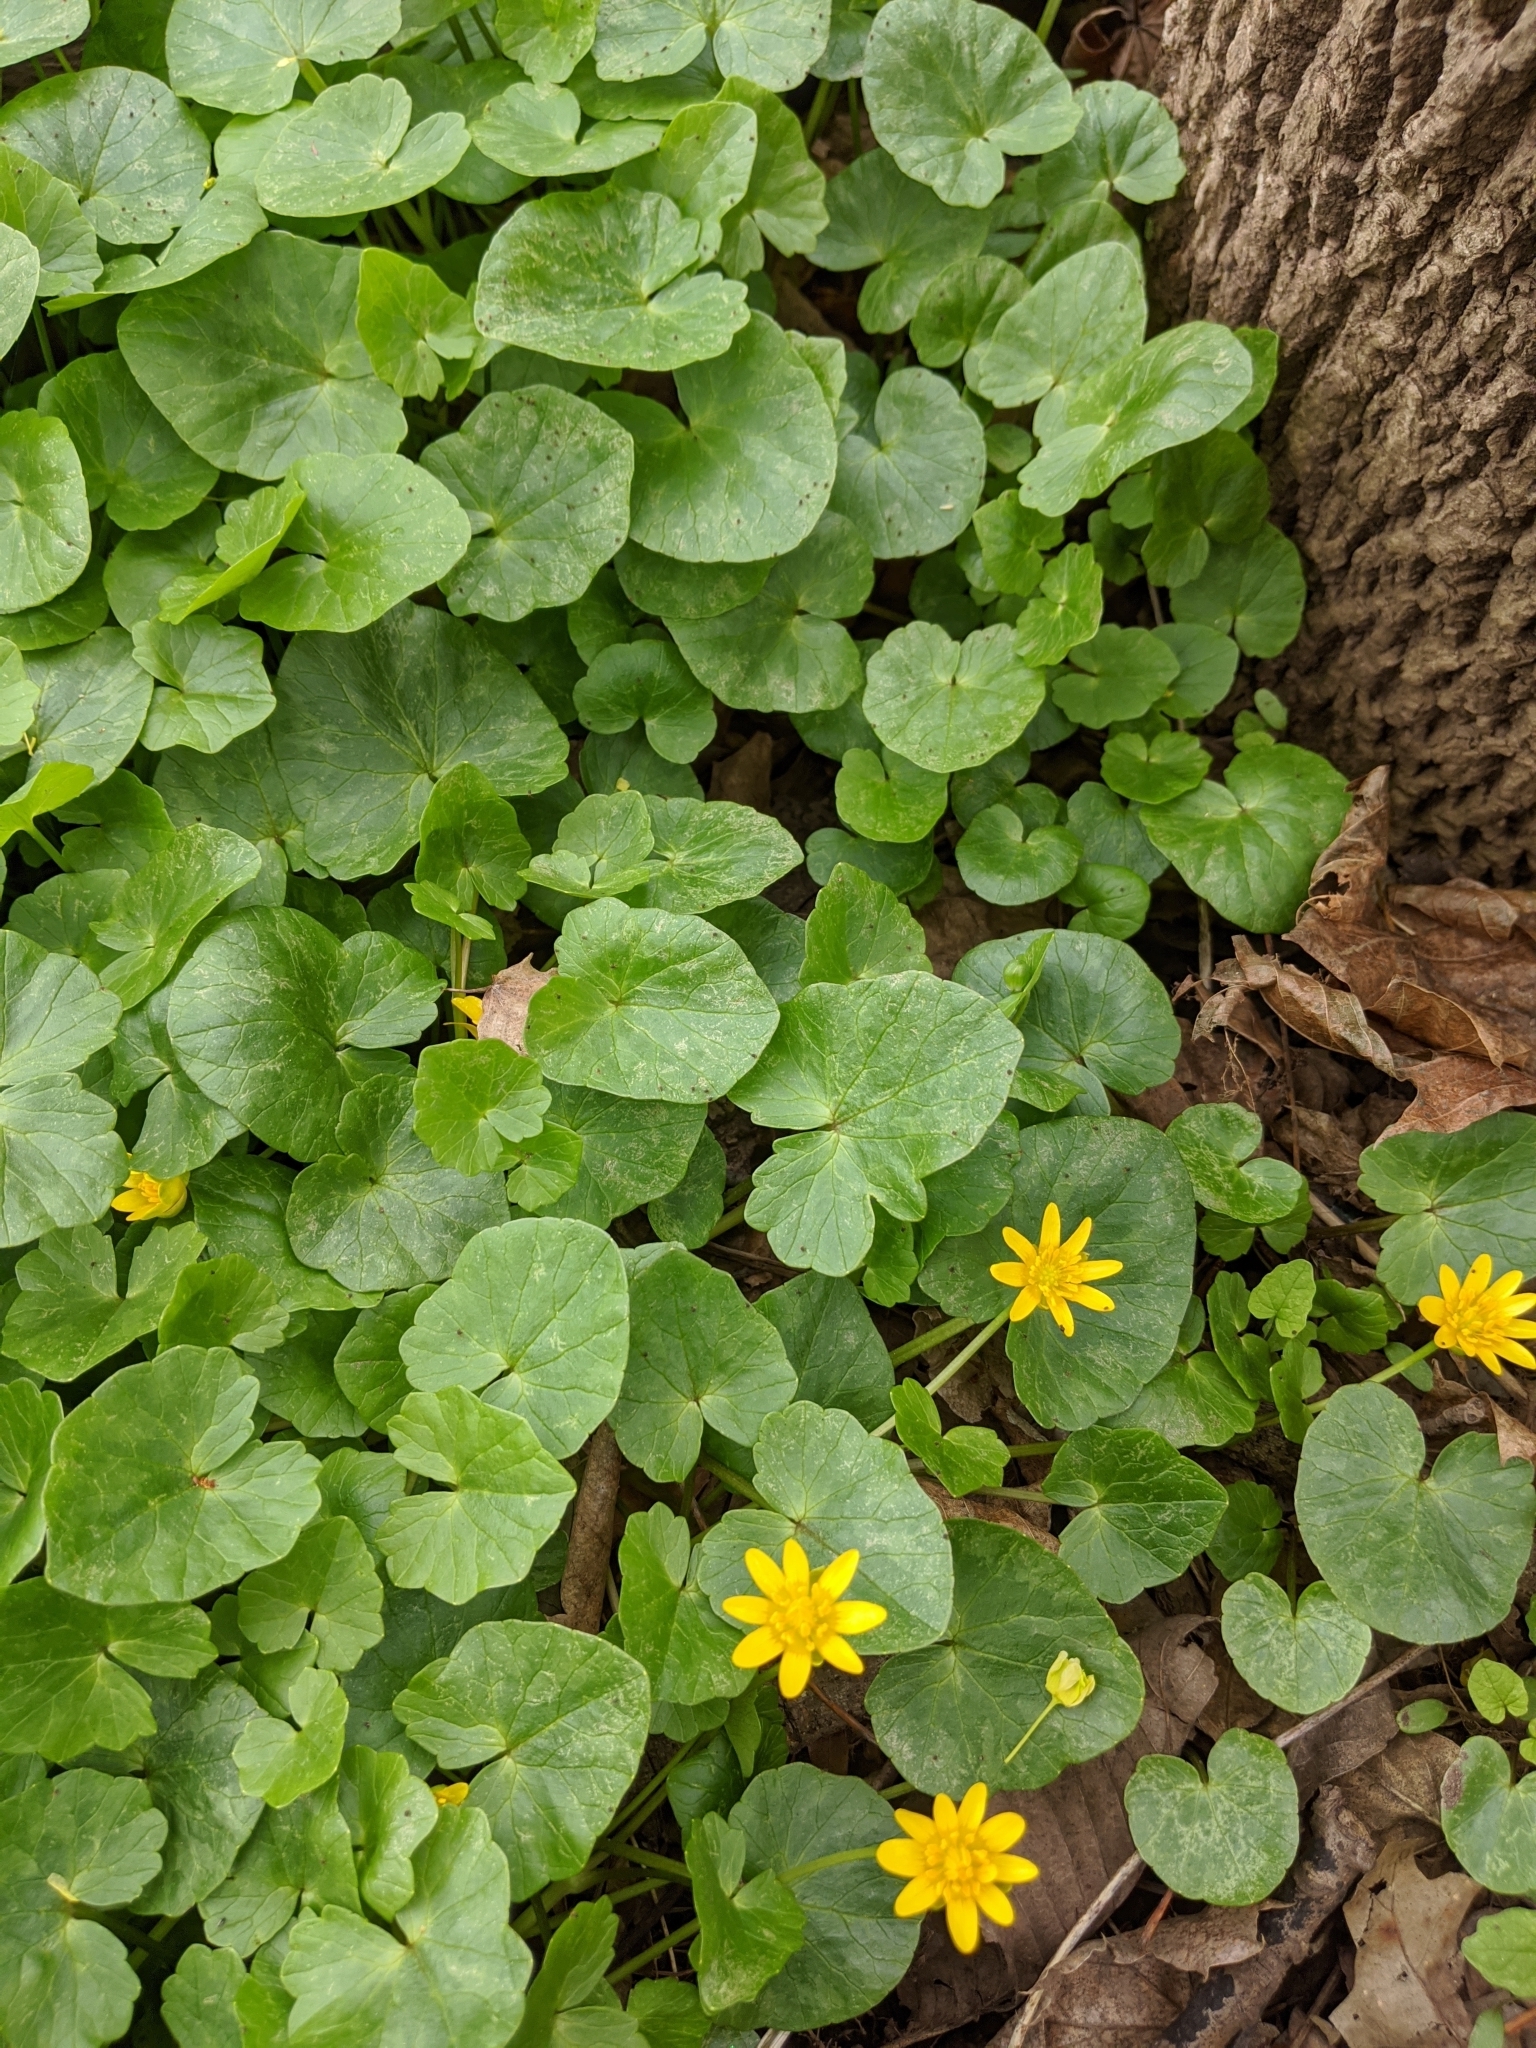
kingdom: Plantae
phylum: Tracheophyta
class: Magnoliopsida
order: Ranunculales
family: Ranunculaceae
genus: Ficaria
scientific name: Ficaria verna
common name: Lesser celandine
